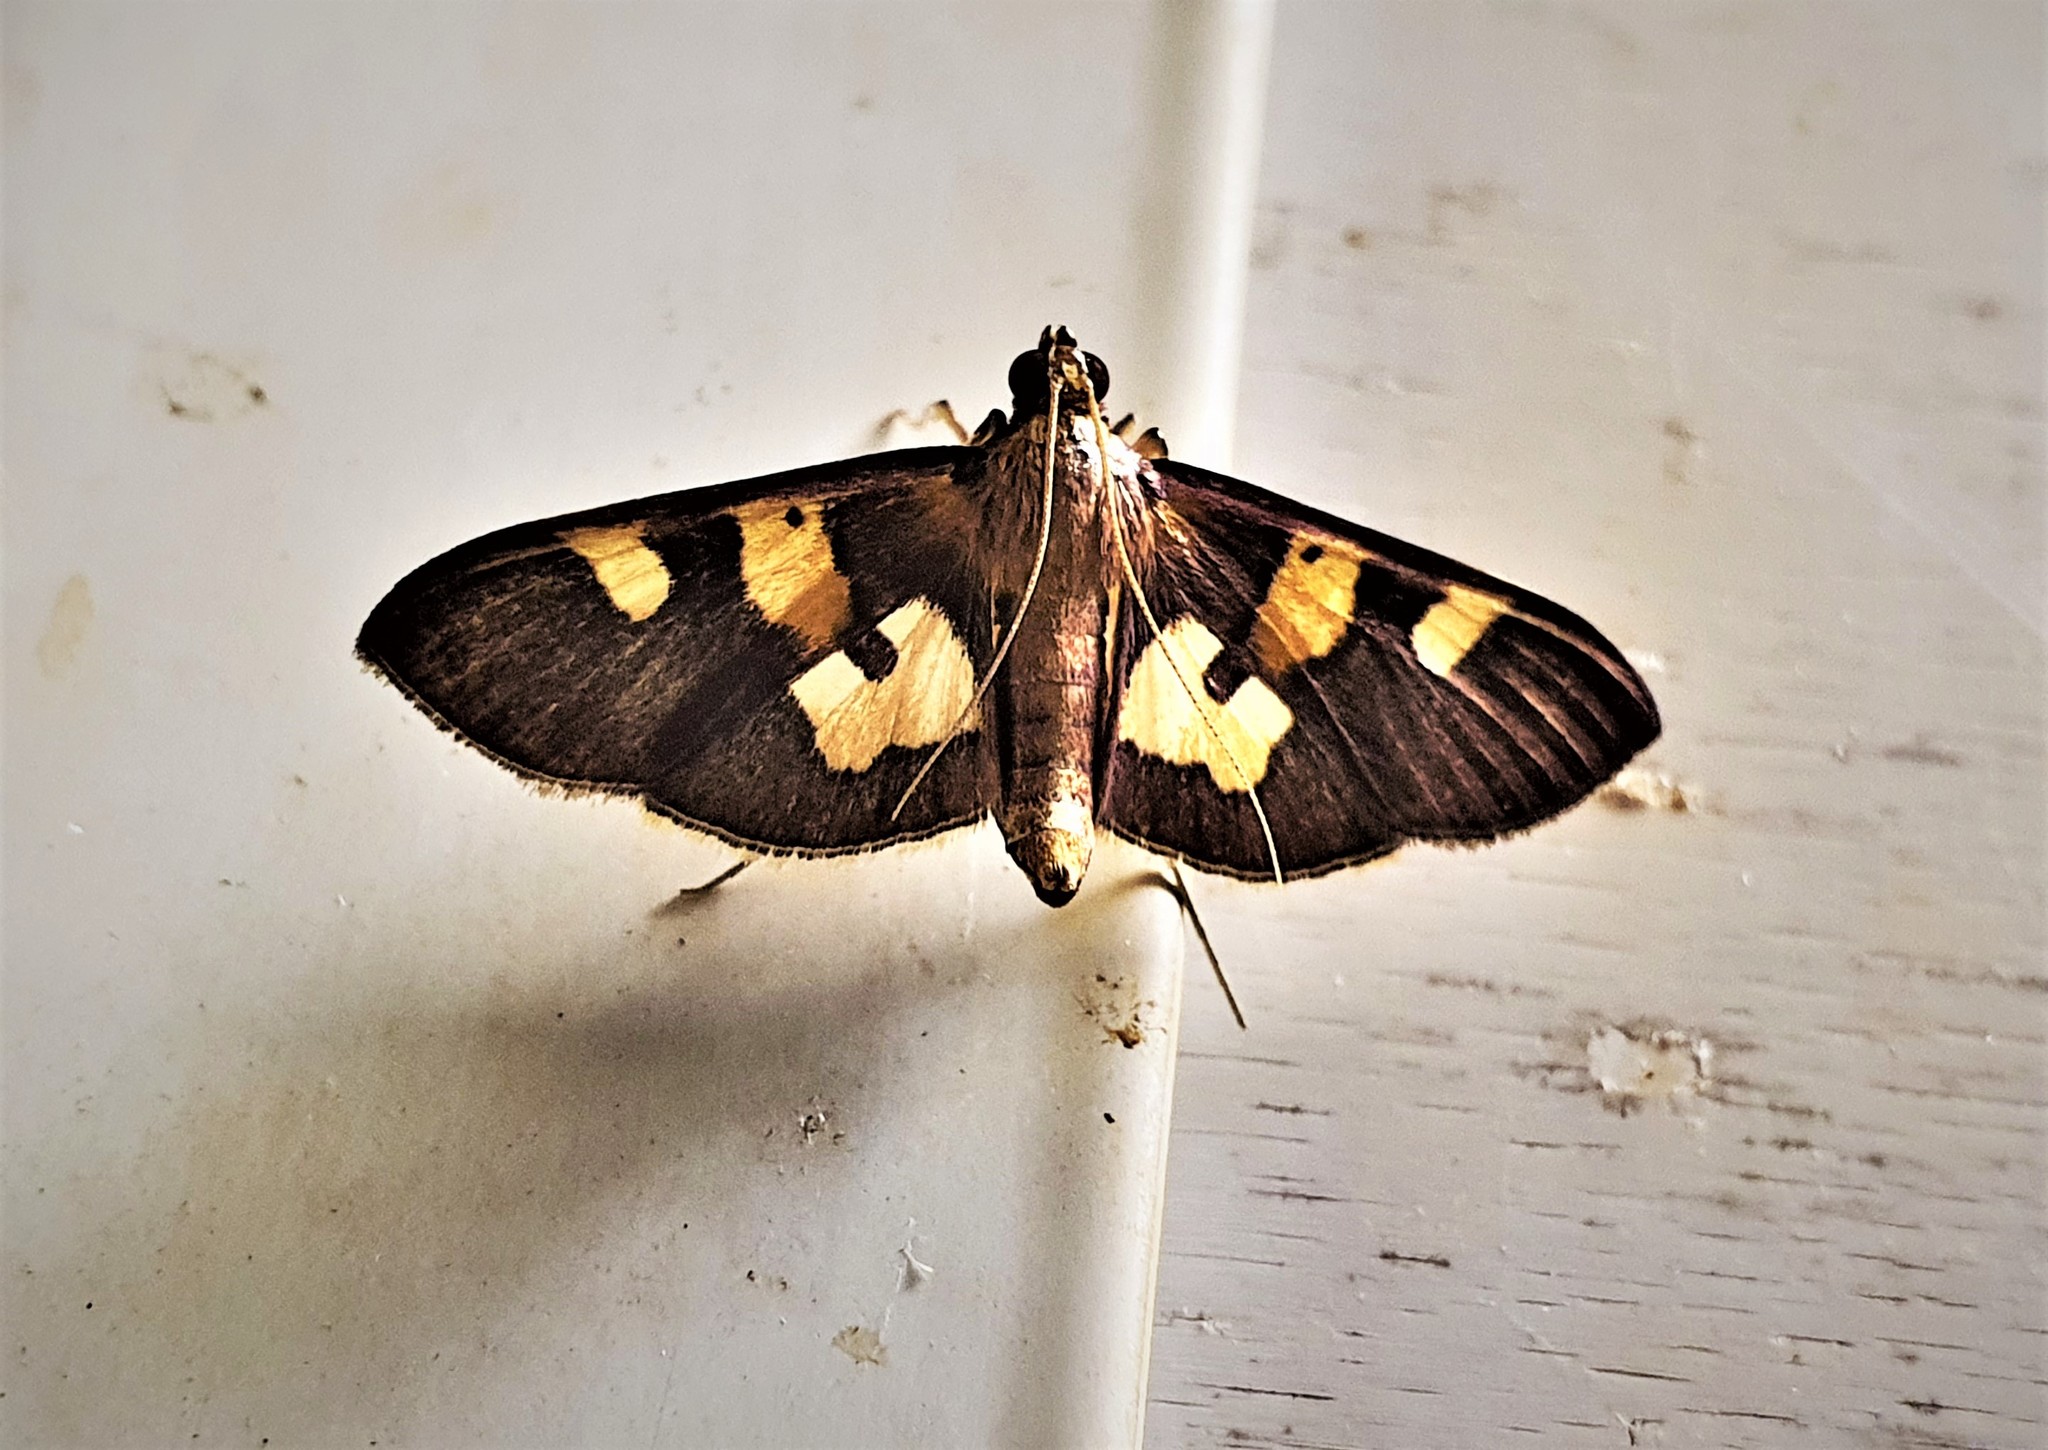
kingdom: Animalia
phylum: Arthropoda
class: Insecta
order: Lepidoptera
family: Crambidae
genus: Trithyris
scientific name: Trithyris evippealis
